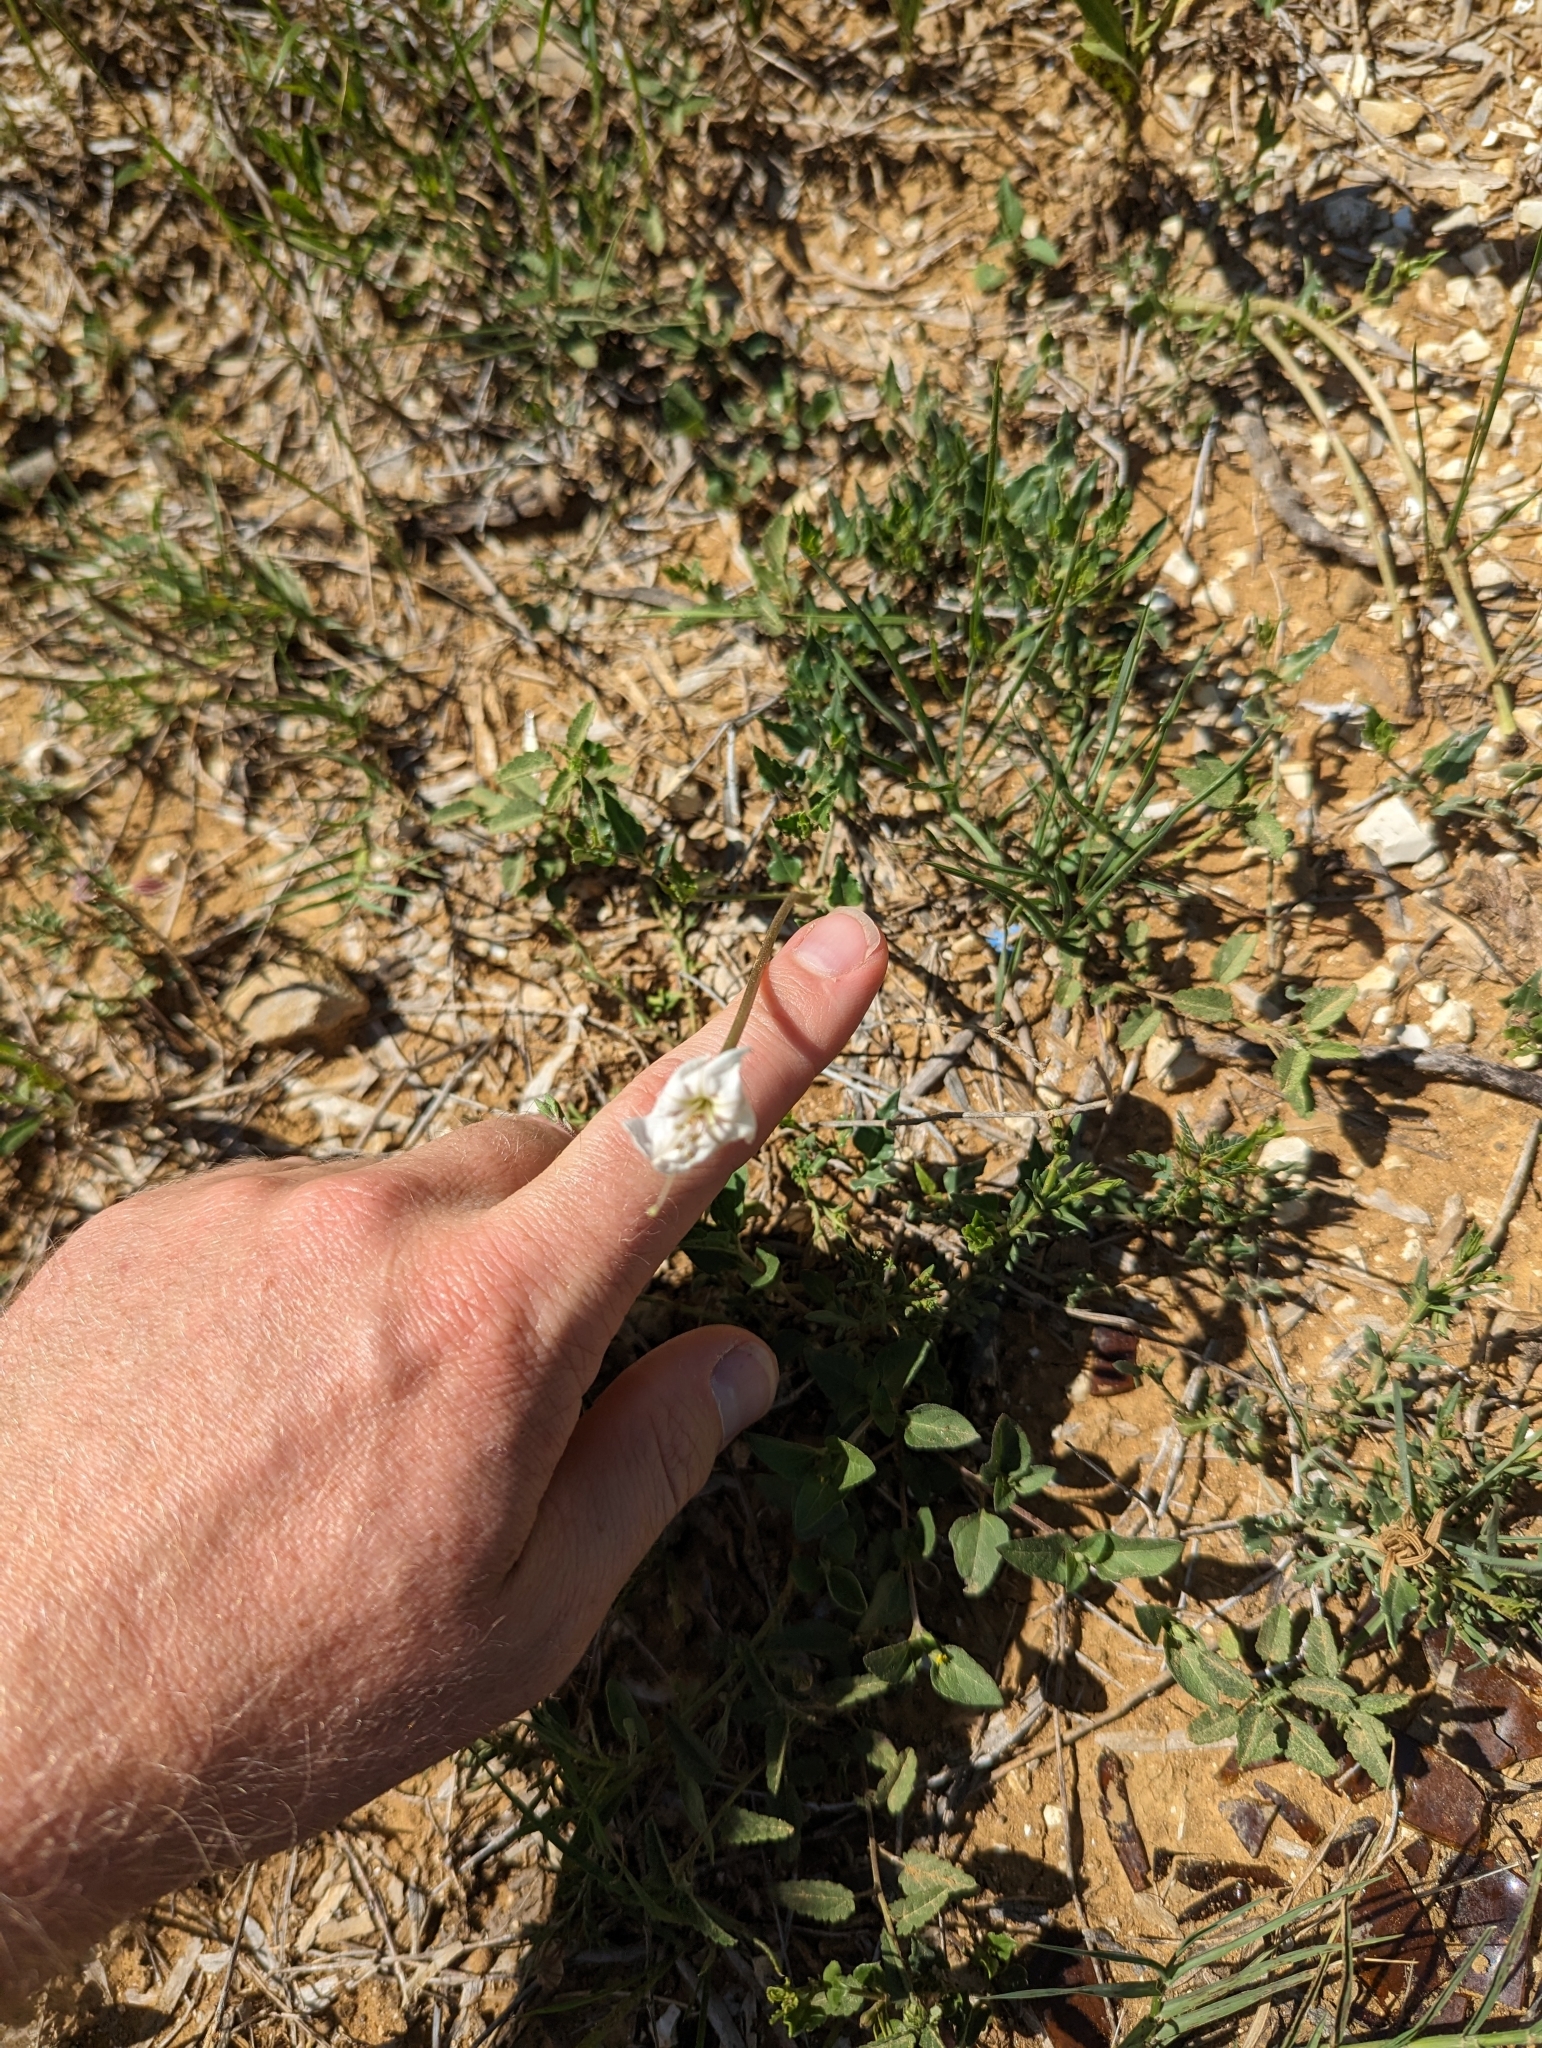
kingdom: Plantae
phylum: Tracheophyta
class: Magnoliopsida
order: Caryophyllales
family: Nyctaginaceae
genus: Acleisanthes
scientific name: Acleisanthes longiflora
